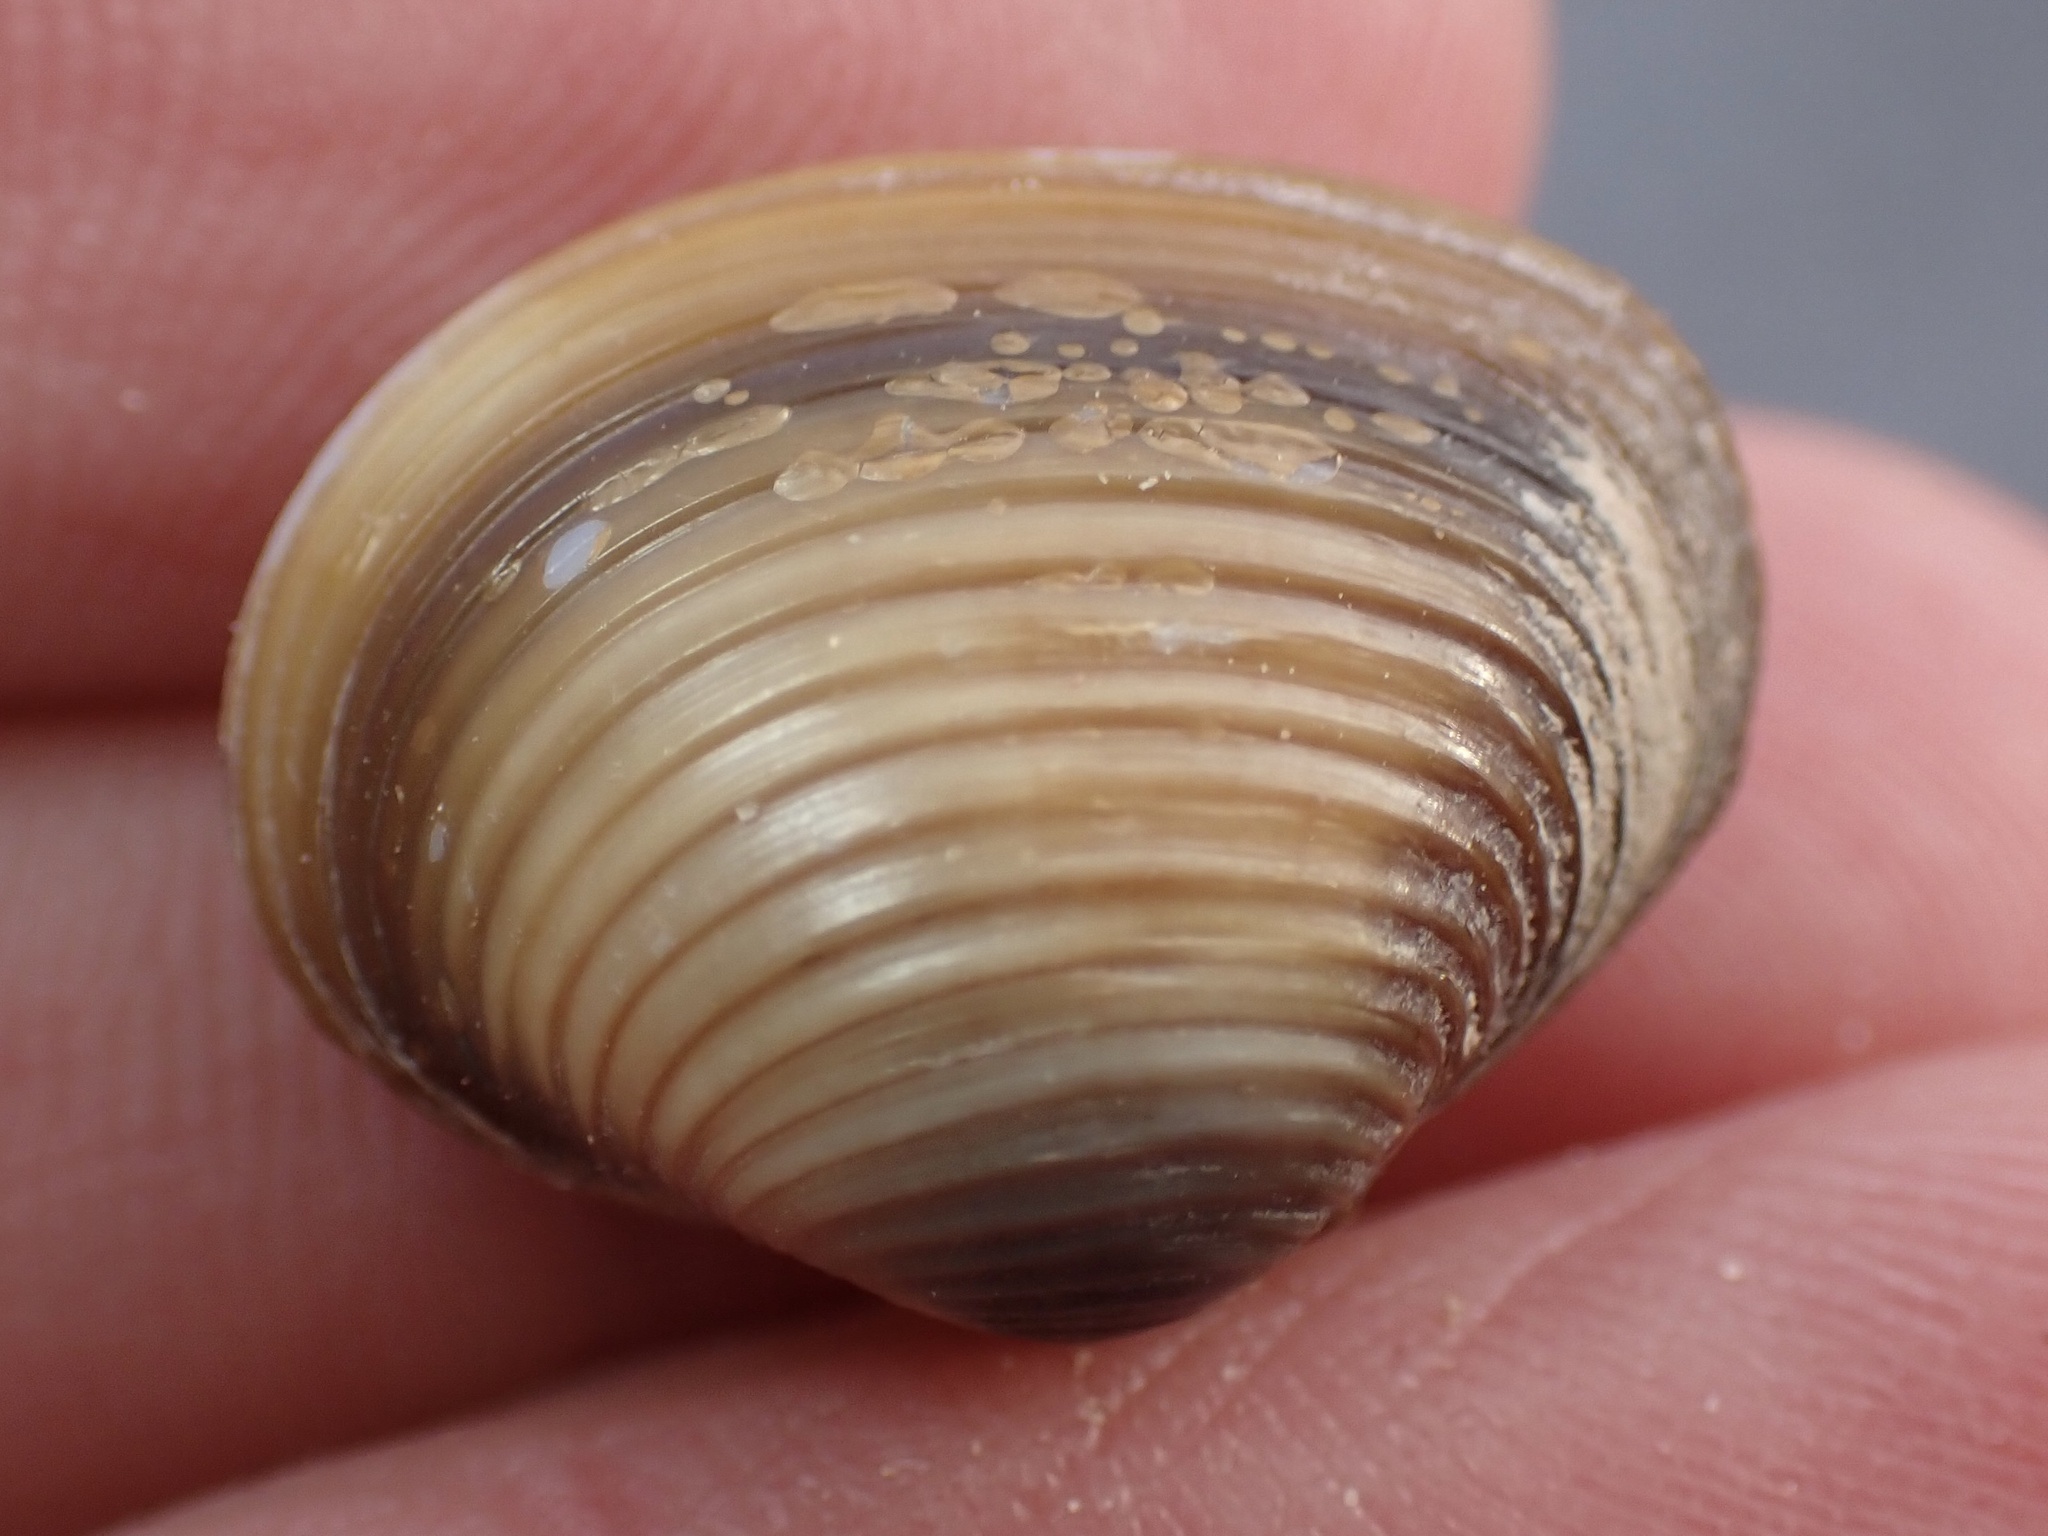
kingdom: Animalia
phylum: Mollusca
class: Bivalvia
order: Venerida
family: Cyrenidae
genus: Corbicula
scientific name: Corbicula fluminea
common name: Asian clam
